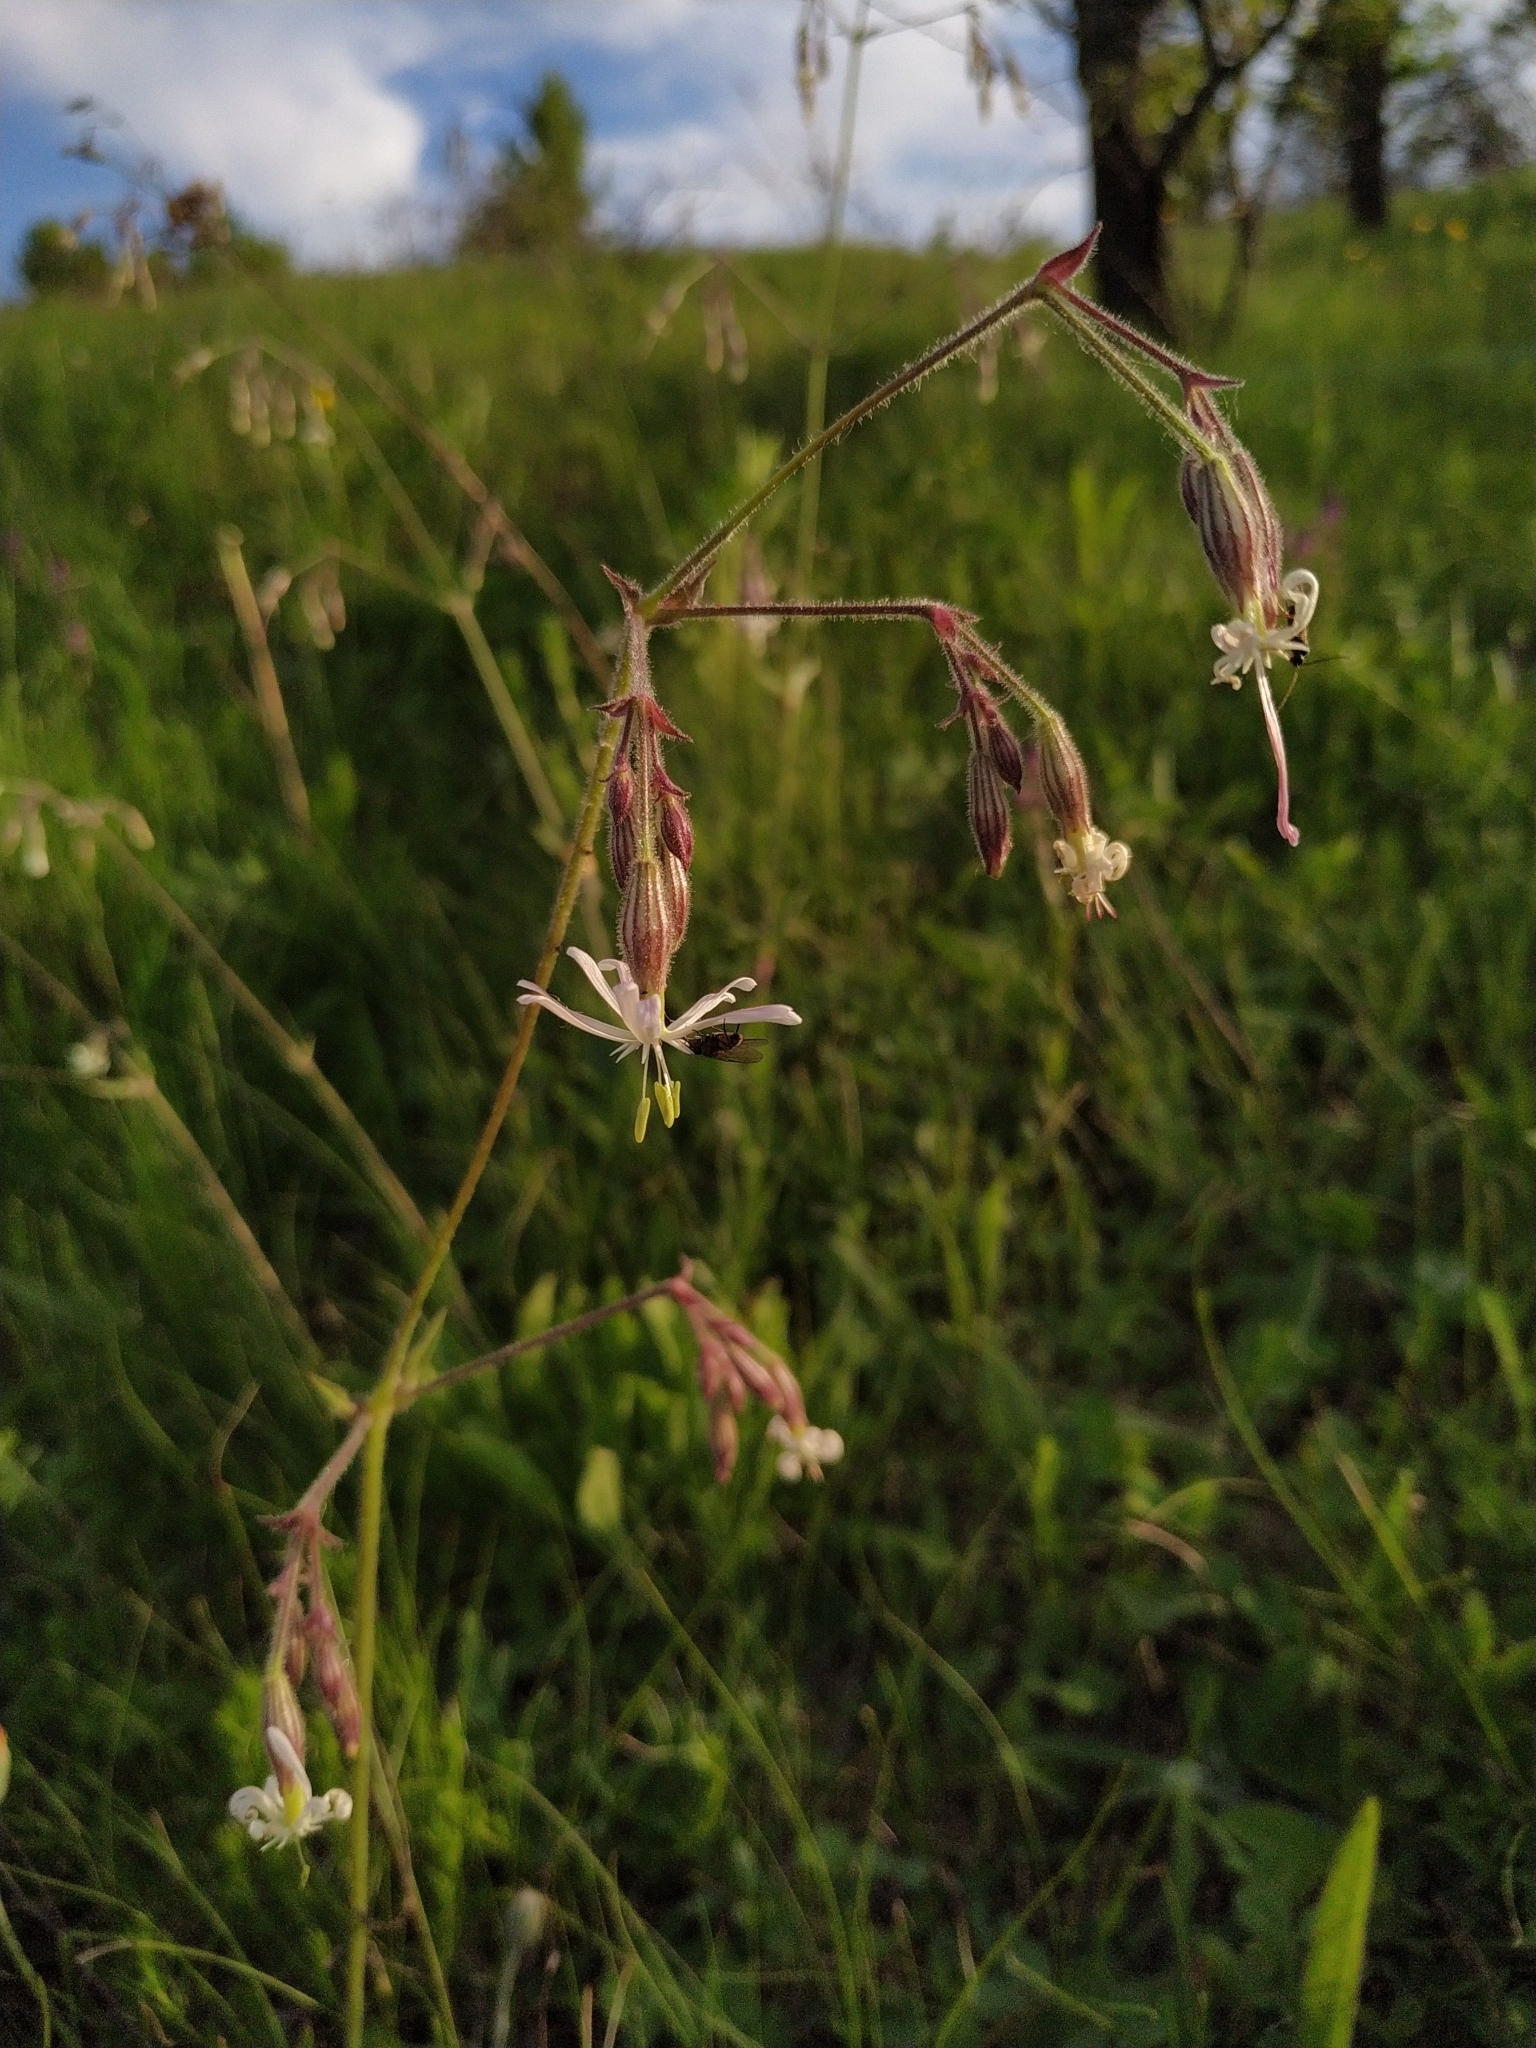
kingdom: Plantae
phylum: Tracheophyta
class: Magnoliopsida
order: Caryophyllales
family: Caryophyllaceae
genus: Silene
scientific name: Silene nutans
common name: Nottingham catchfly
